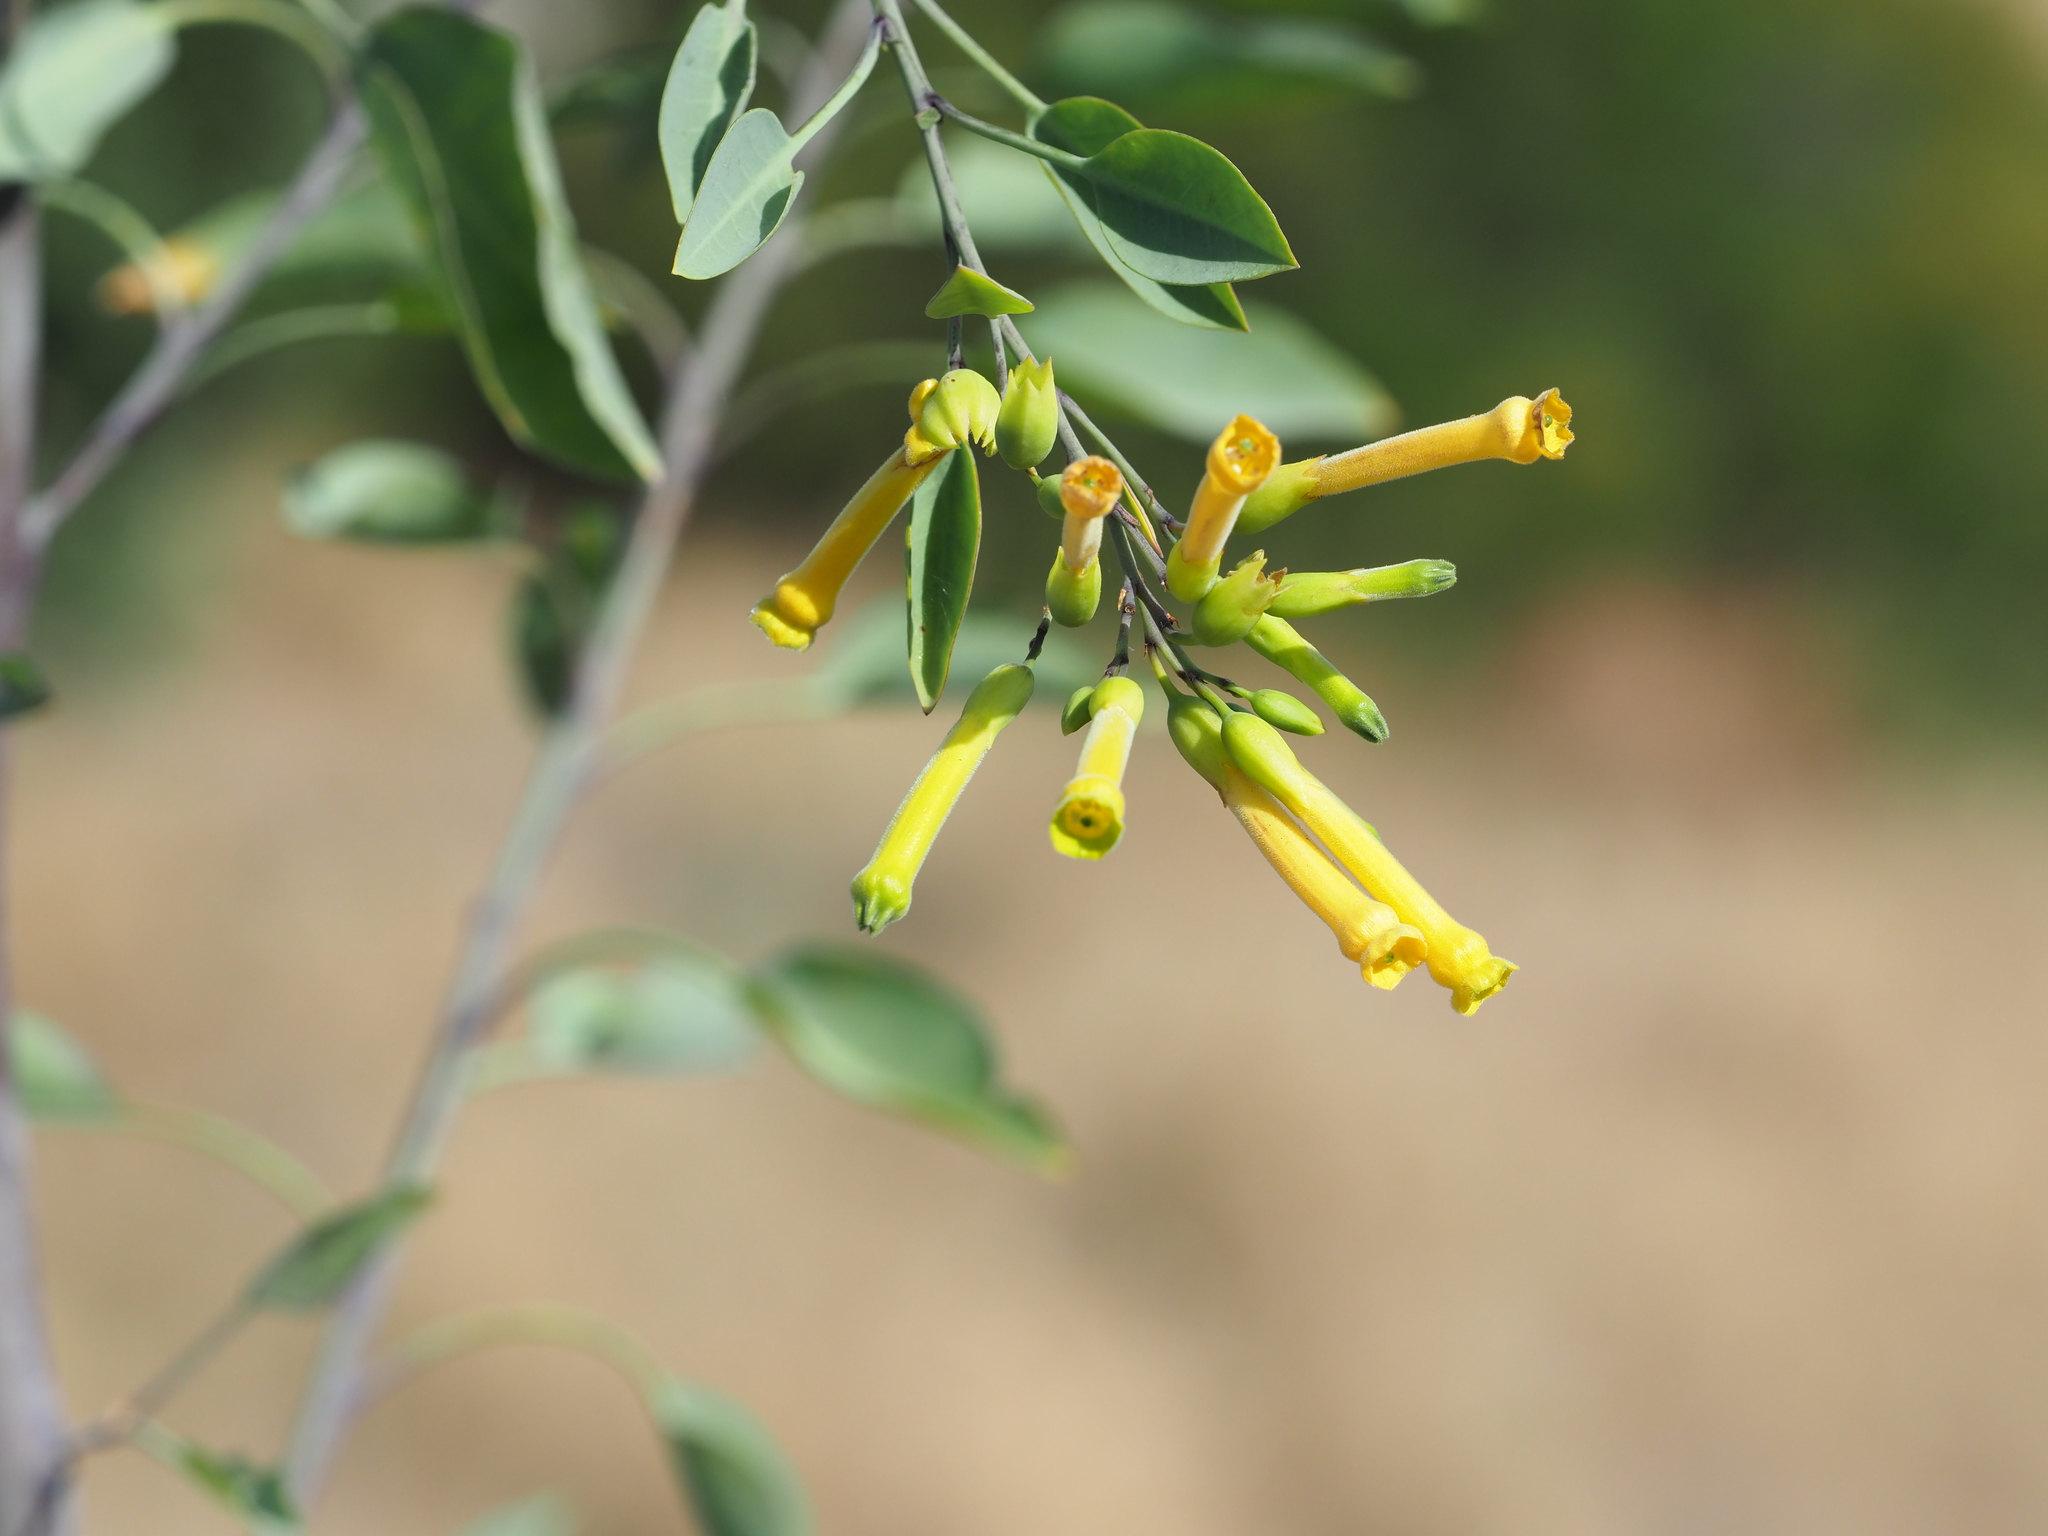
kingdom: Plantae
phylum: Tracheophyta
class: Magnoliopsida
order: Solanales
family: Solanaceae
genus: Nicotiana
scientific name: Nicotiana glauca
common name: Tree tobacco
